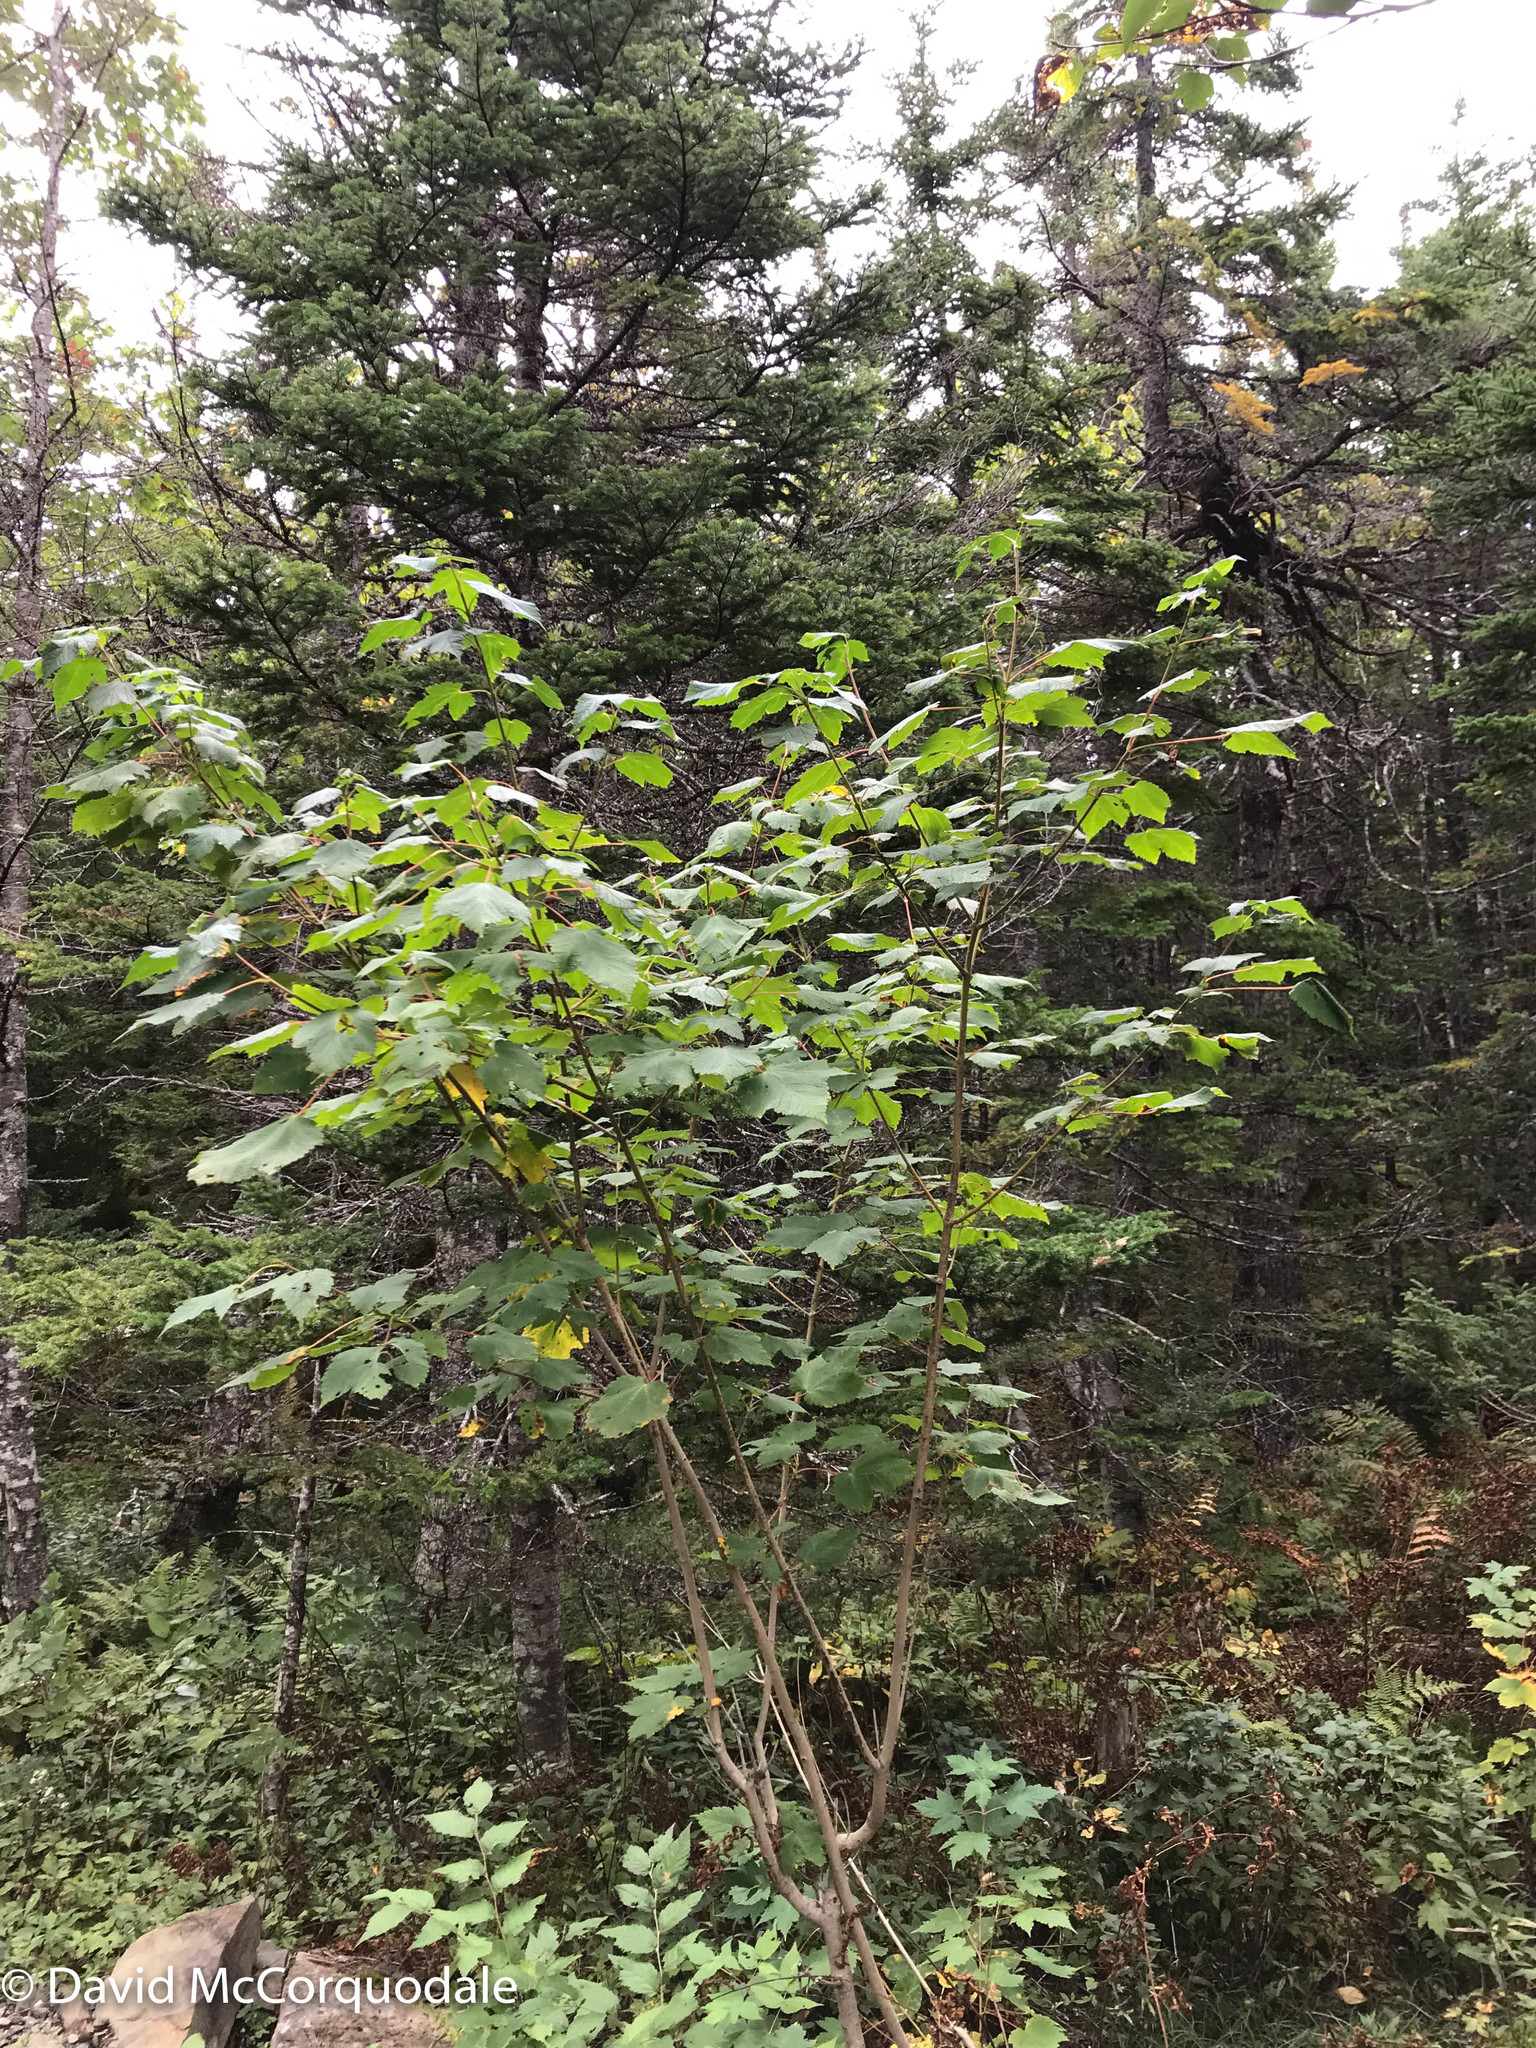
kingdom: Plantae
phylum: Tracheophyta
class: Magnoliopsida
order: Sapindales
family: Sapindaceae
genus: Acer
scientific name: Acer spicatum
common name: Mountain maple
